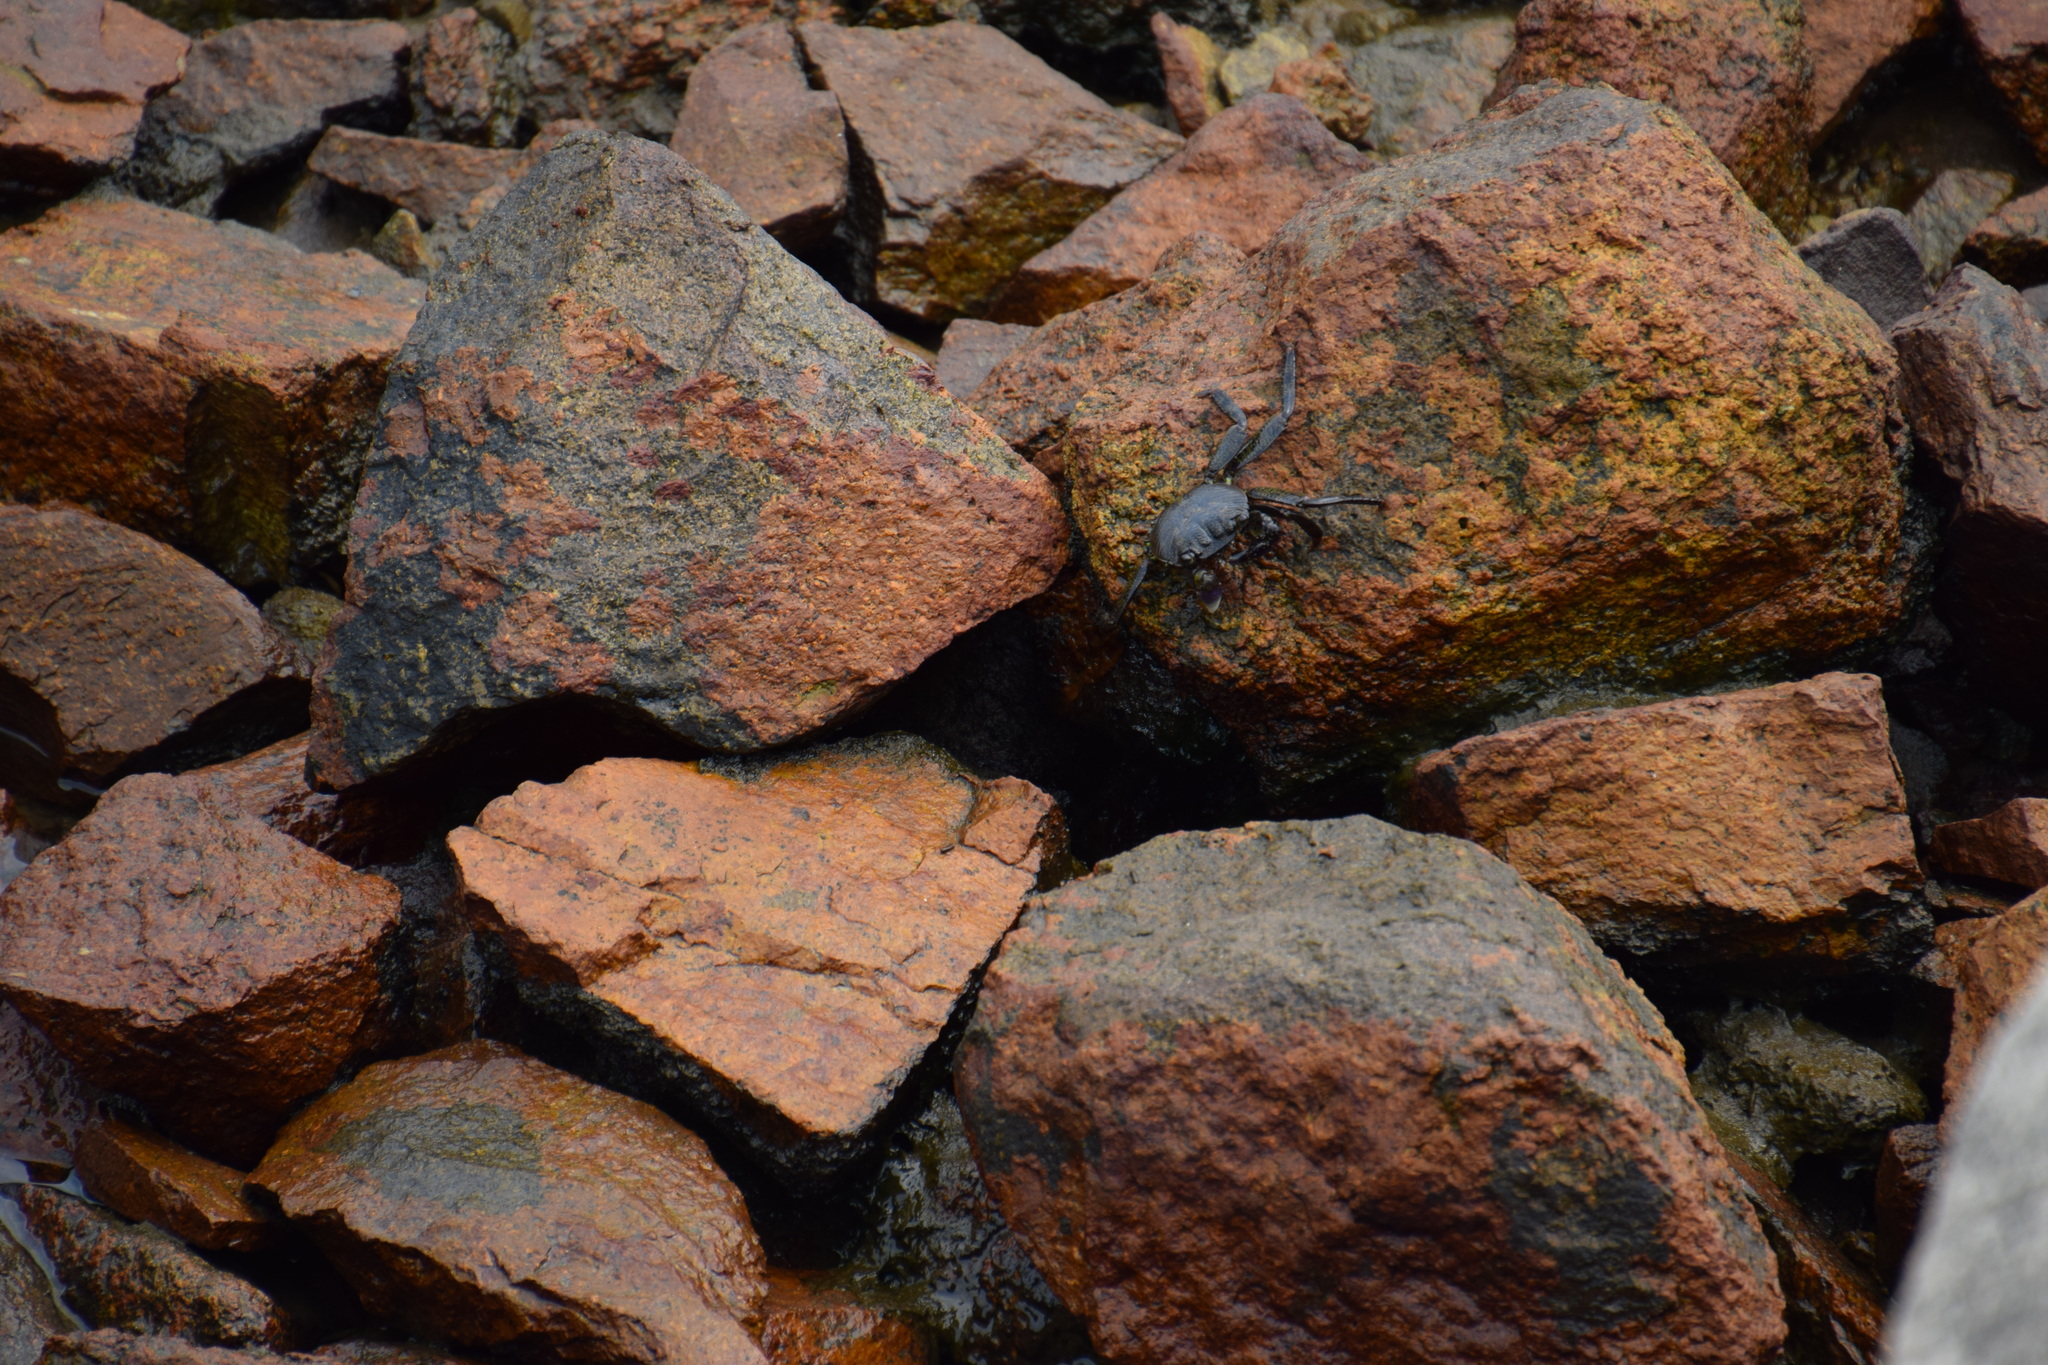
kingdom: Animalia
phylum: Arthropoda
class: Malacostraca
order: Decapoda
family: Grapsidae
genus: Leptograpsus
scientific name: Leptograpsus variegatus
